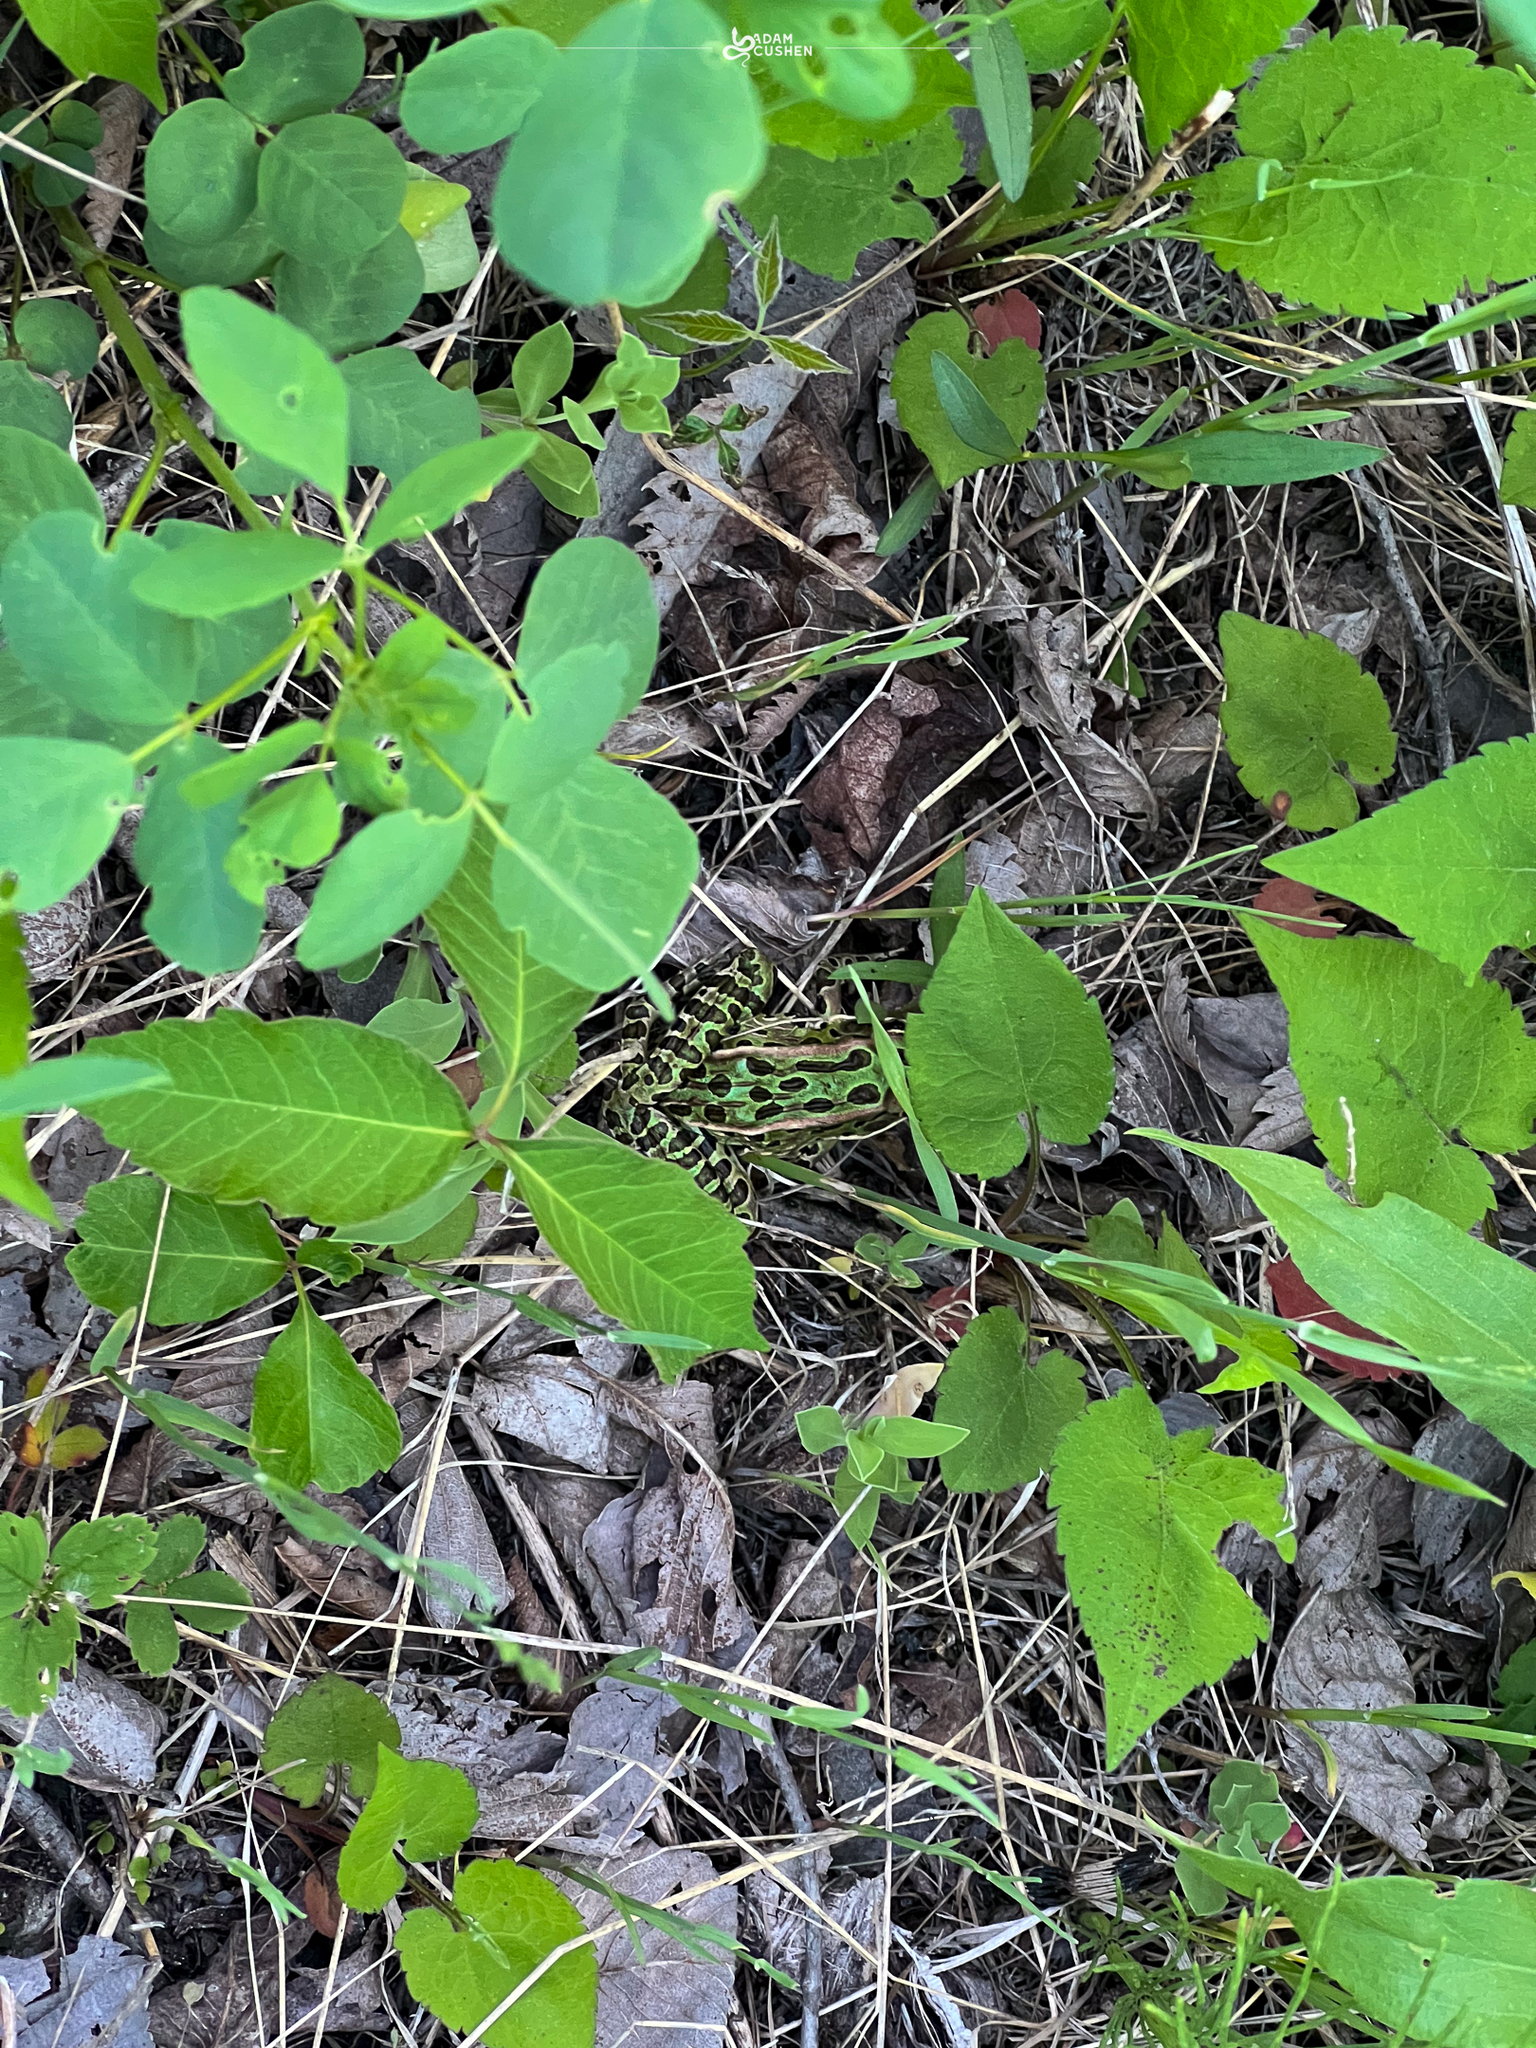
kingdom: Animalia
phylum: Chordata
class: Amphibia
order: Anura
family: Ranidae
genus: Lithobates
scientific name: Lithobates pipiens
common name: Northern leopard frog
